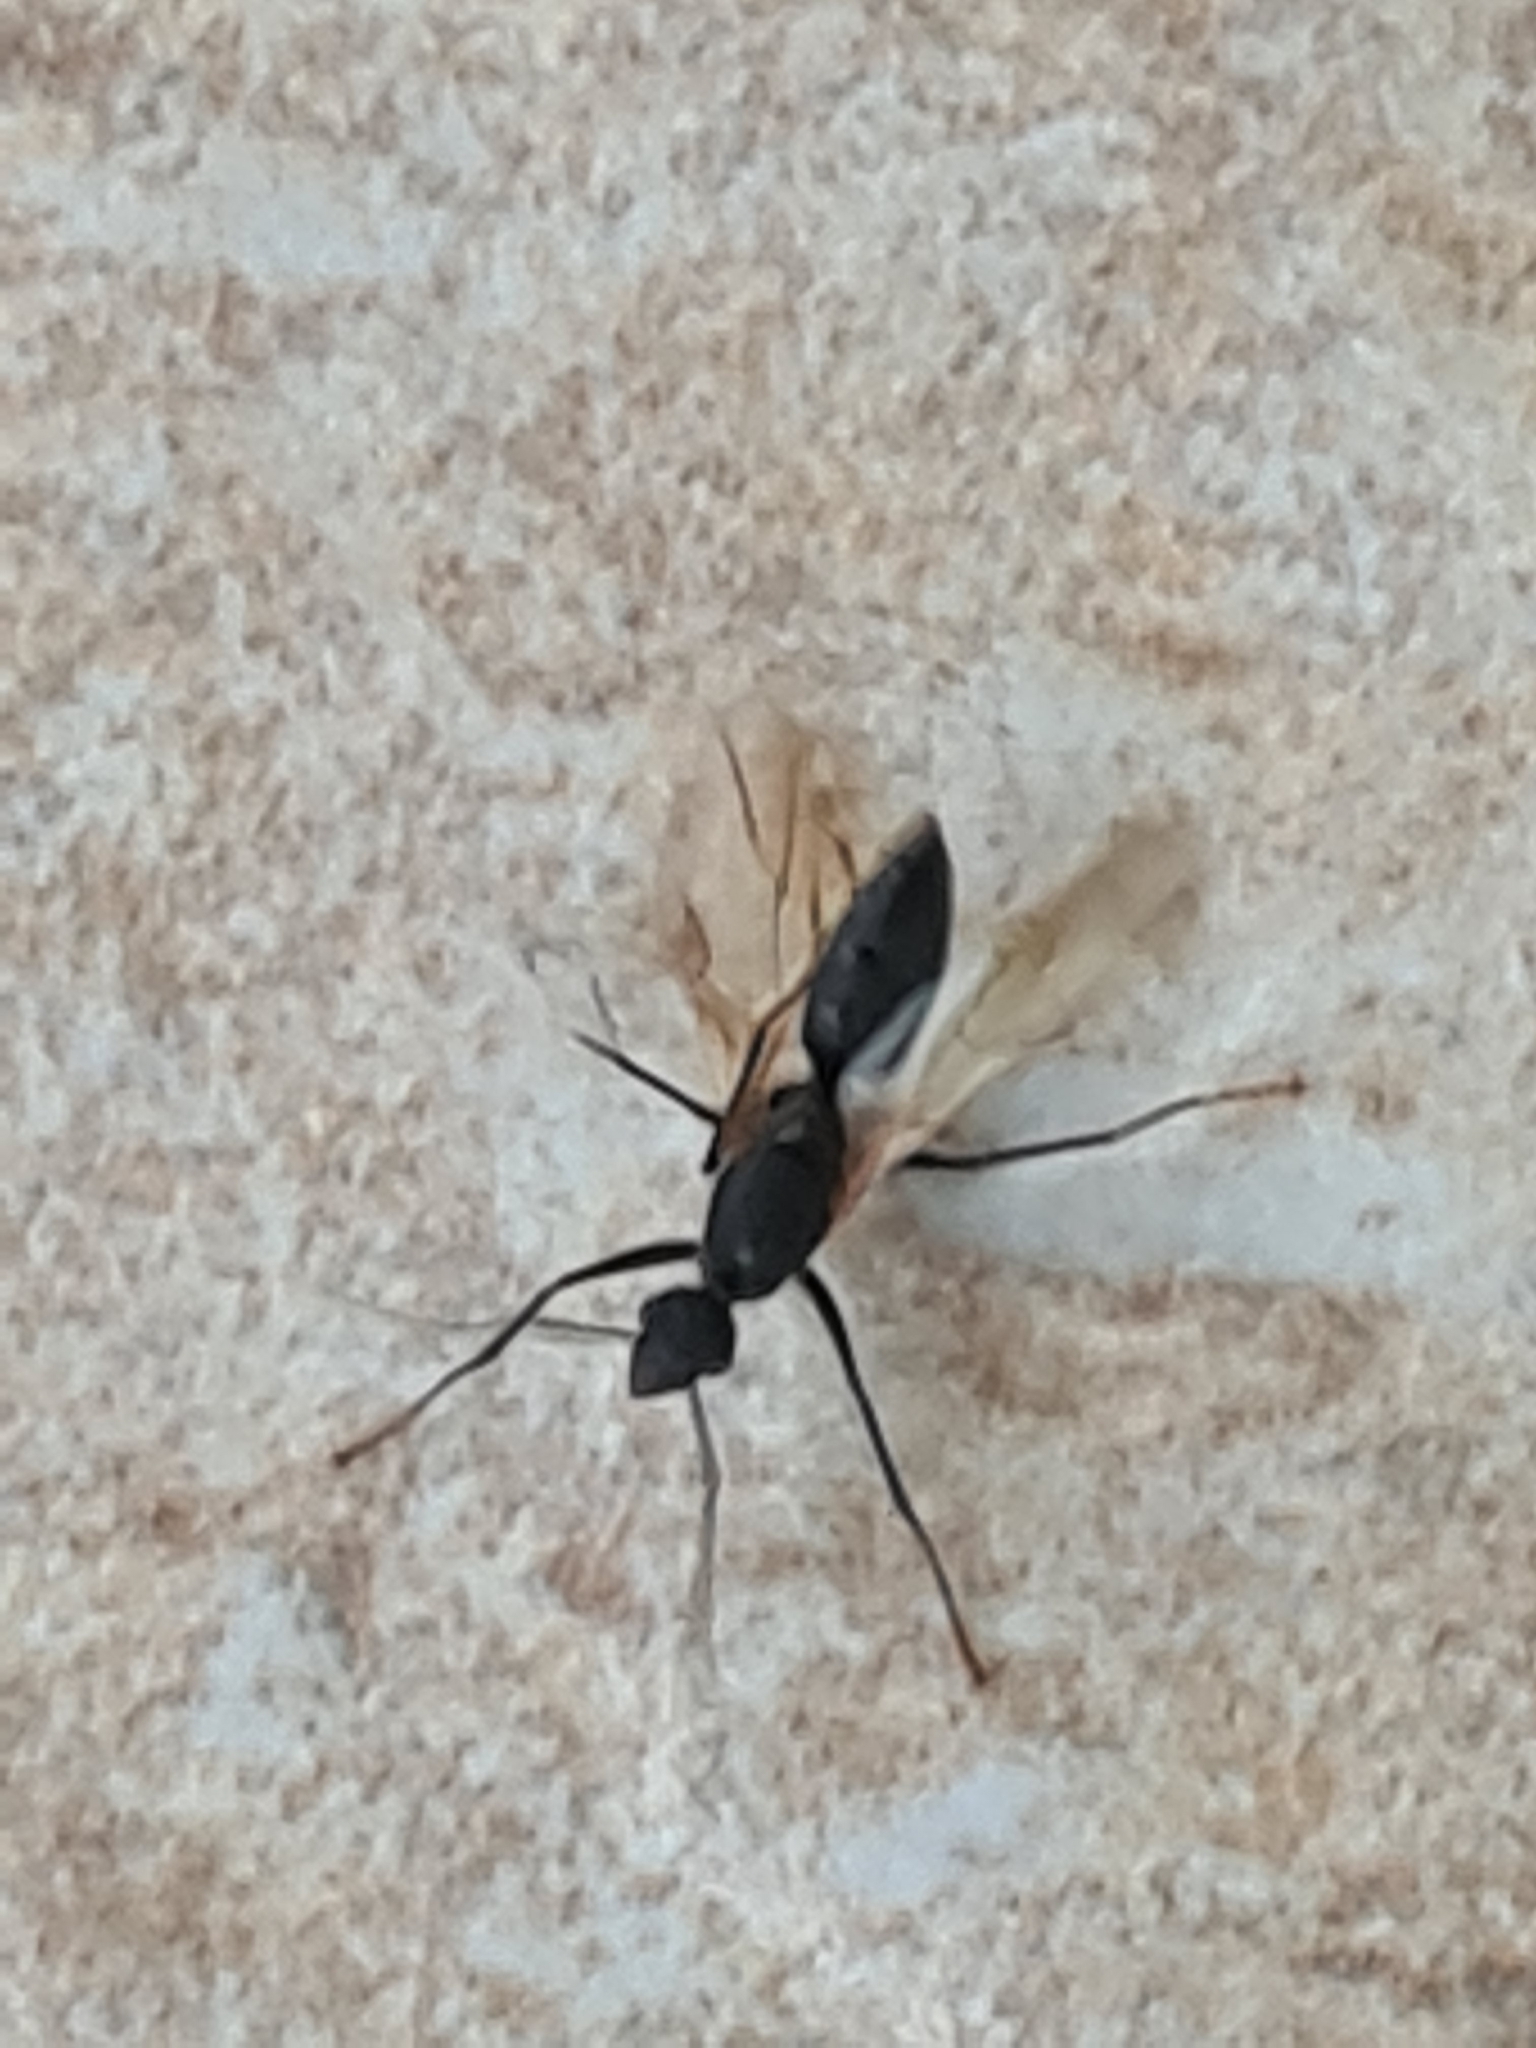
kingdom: Animalia
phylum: Arthropoda
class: Insecta
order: Hymenoptera
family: Formicidae
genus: Camponotus
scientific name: Camponotus
